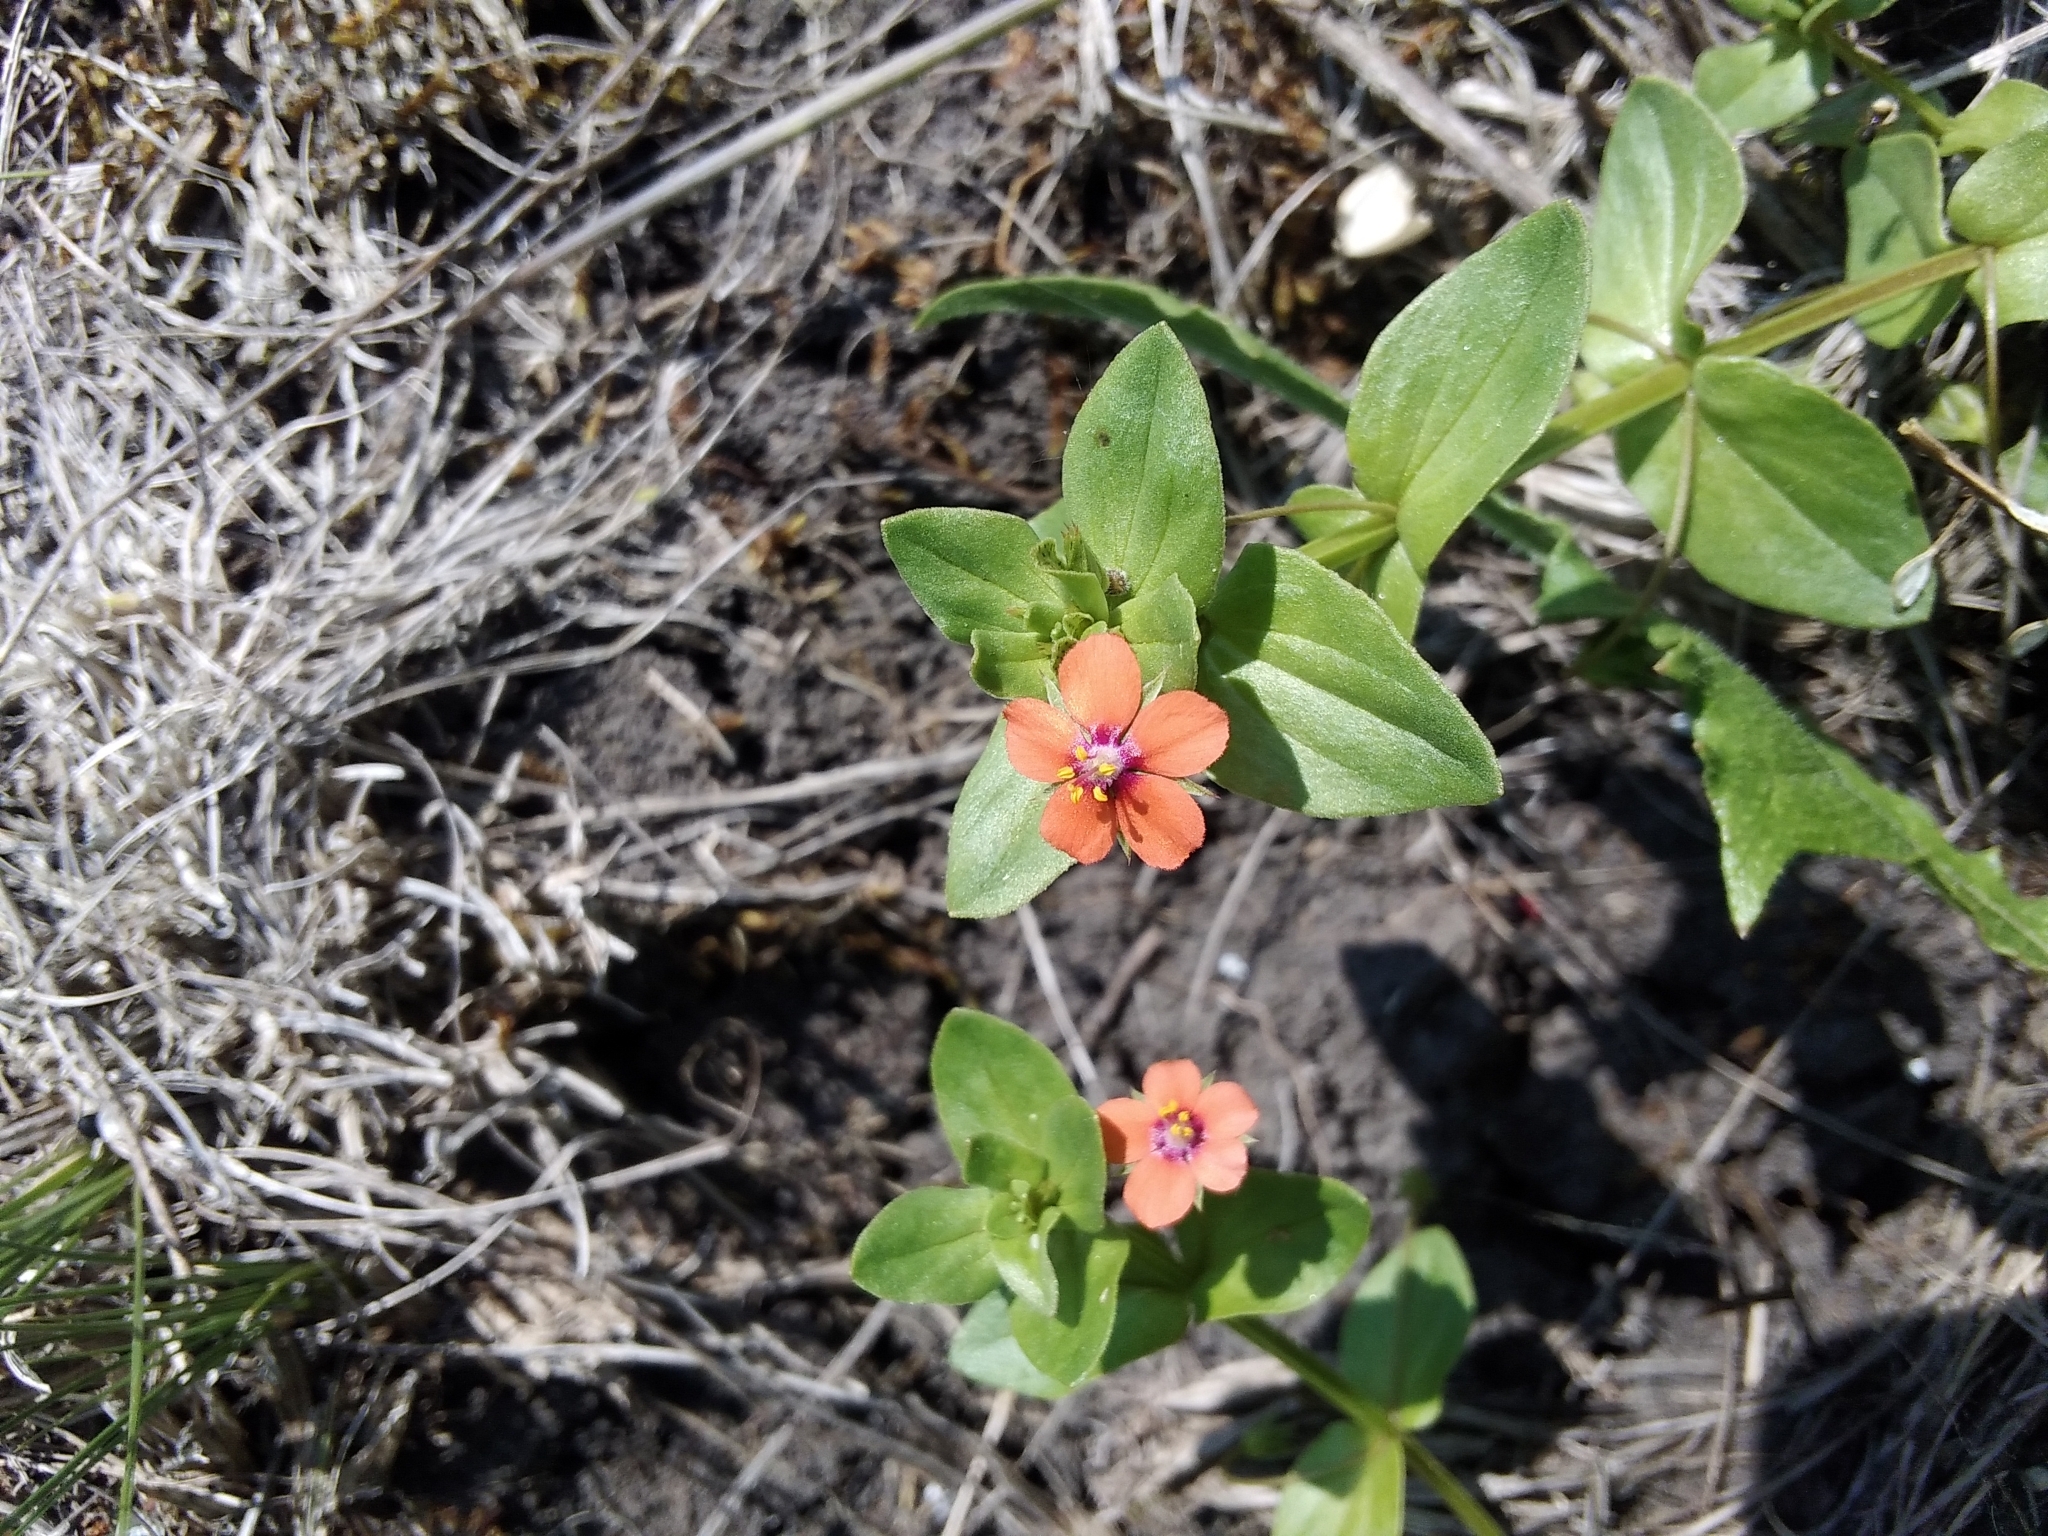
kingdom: Plantae
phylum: Tracheophyta
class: Magnoliopsida
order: Ericales
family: Primulaceae
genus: Lysimachia
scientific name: Lysimachia arvensis
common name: Scarlet pimpernel
